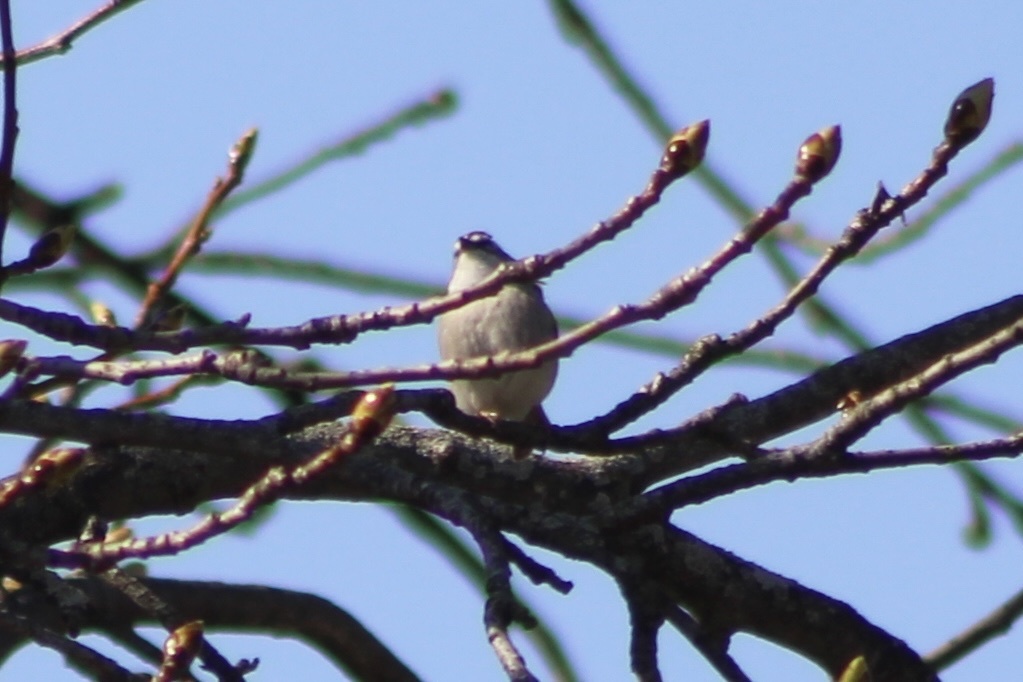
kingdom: Animalia
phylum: Chordata
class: Aves
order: Passeriformes
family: Passerellidae
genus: Spizella
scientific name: Spizella passerina
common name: Chipping sparrow
